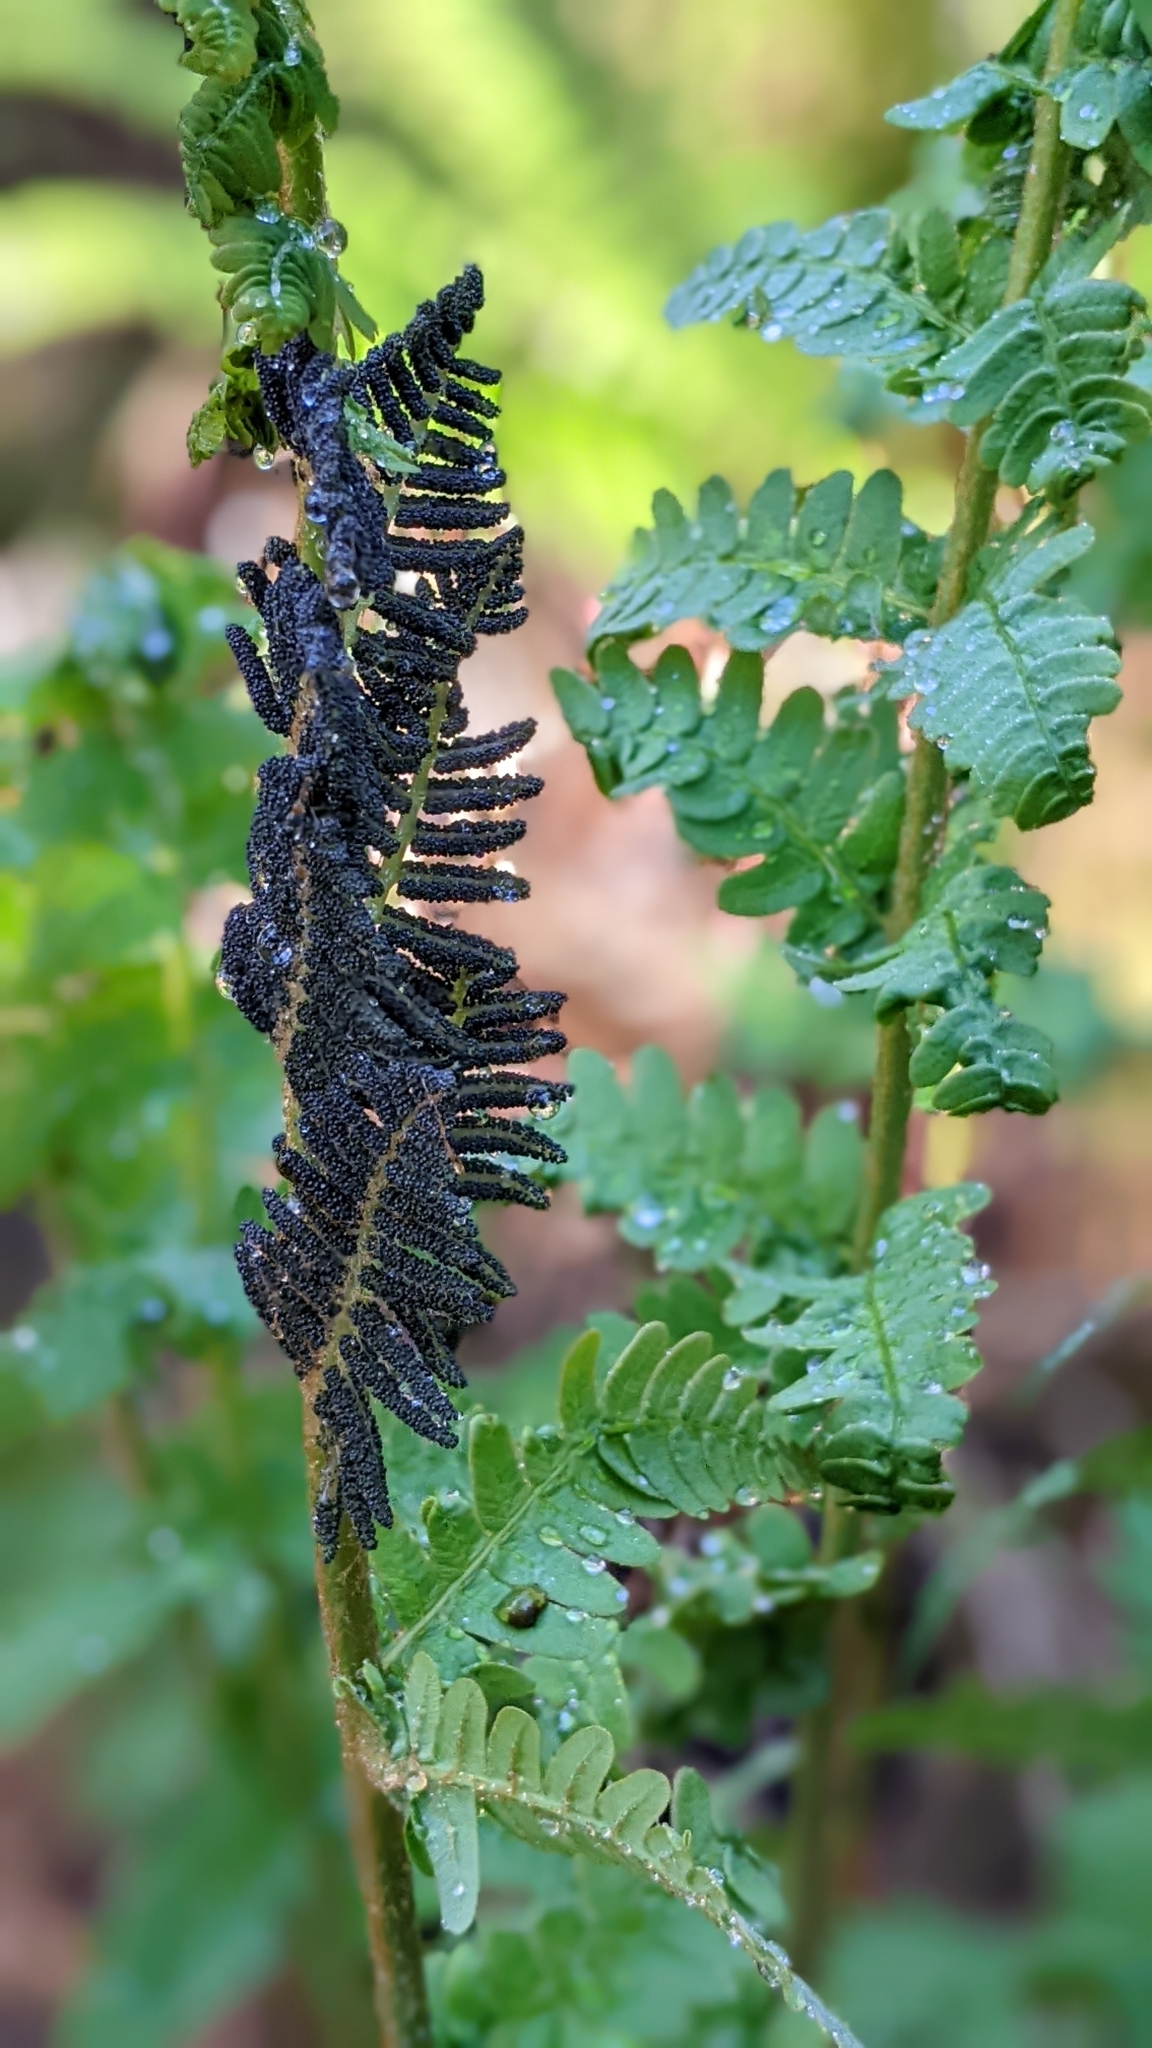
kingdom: Plantae
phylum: Tracheophyta
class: Polypodiopsida
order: Osmundales
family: Osmundaceae
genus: Claytosmunda
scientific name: Claytosmunda claytoniana
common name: Clayton's fern
